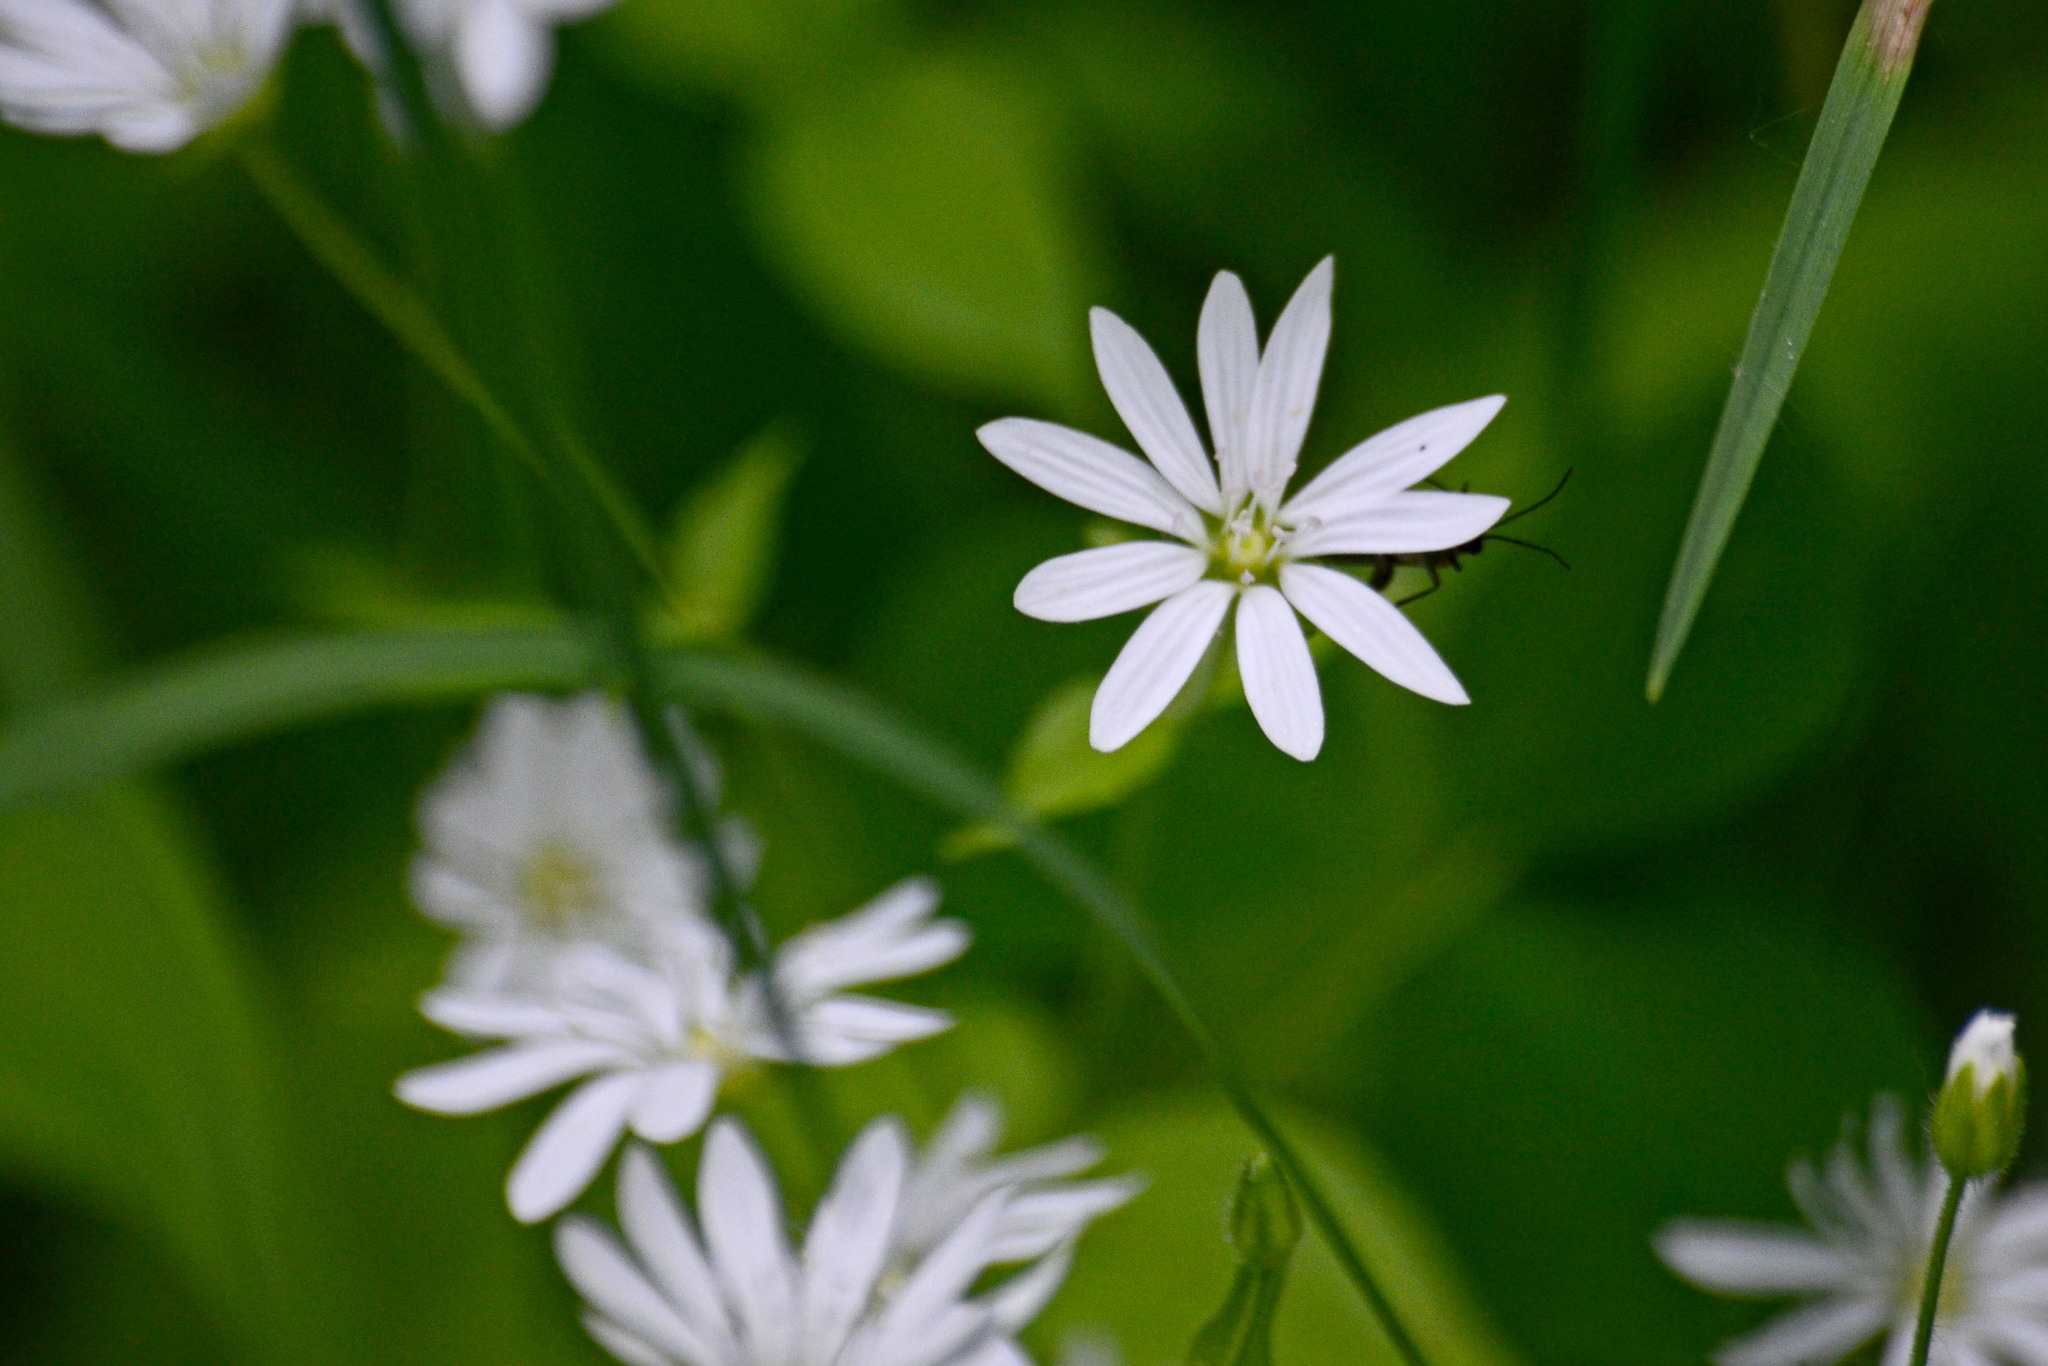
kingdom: Plantae
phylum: Tracheophyta
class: Magnoliopsida
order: Caryophyllales
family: Caryophyllaceae
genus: Stellaria
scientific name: Stellaria graminea
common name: Grass-like starwort
